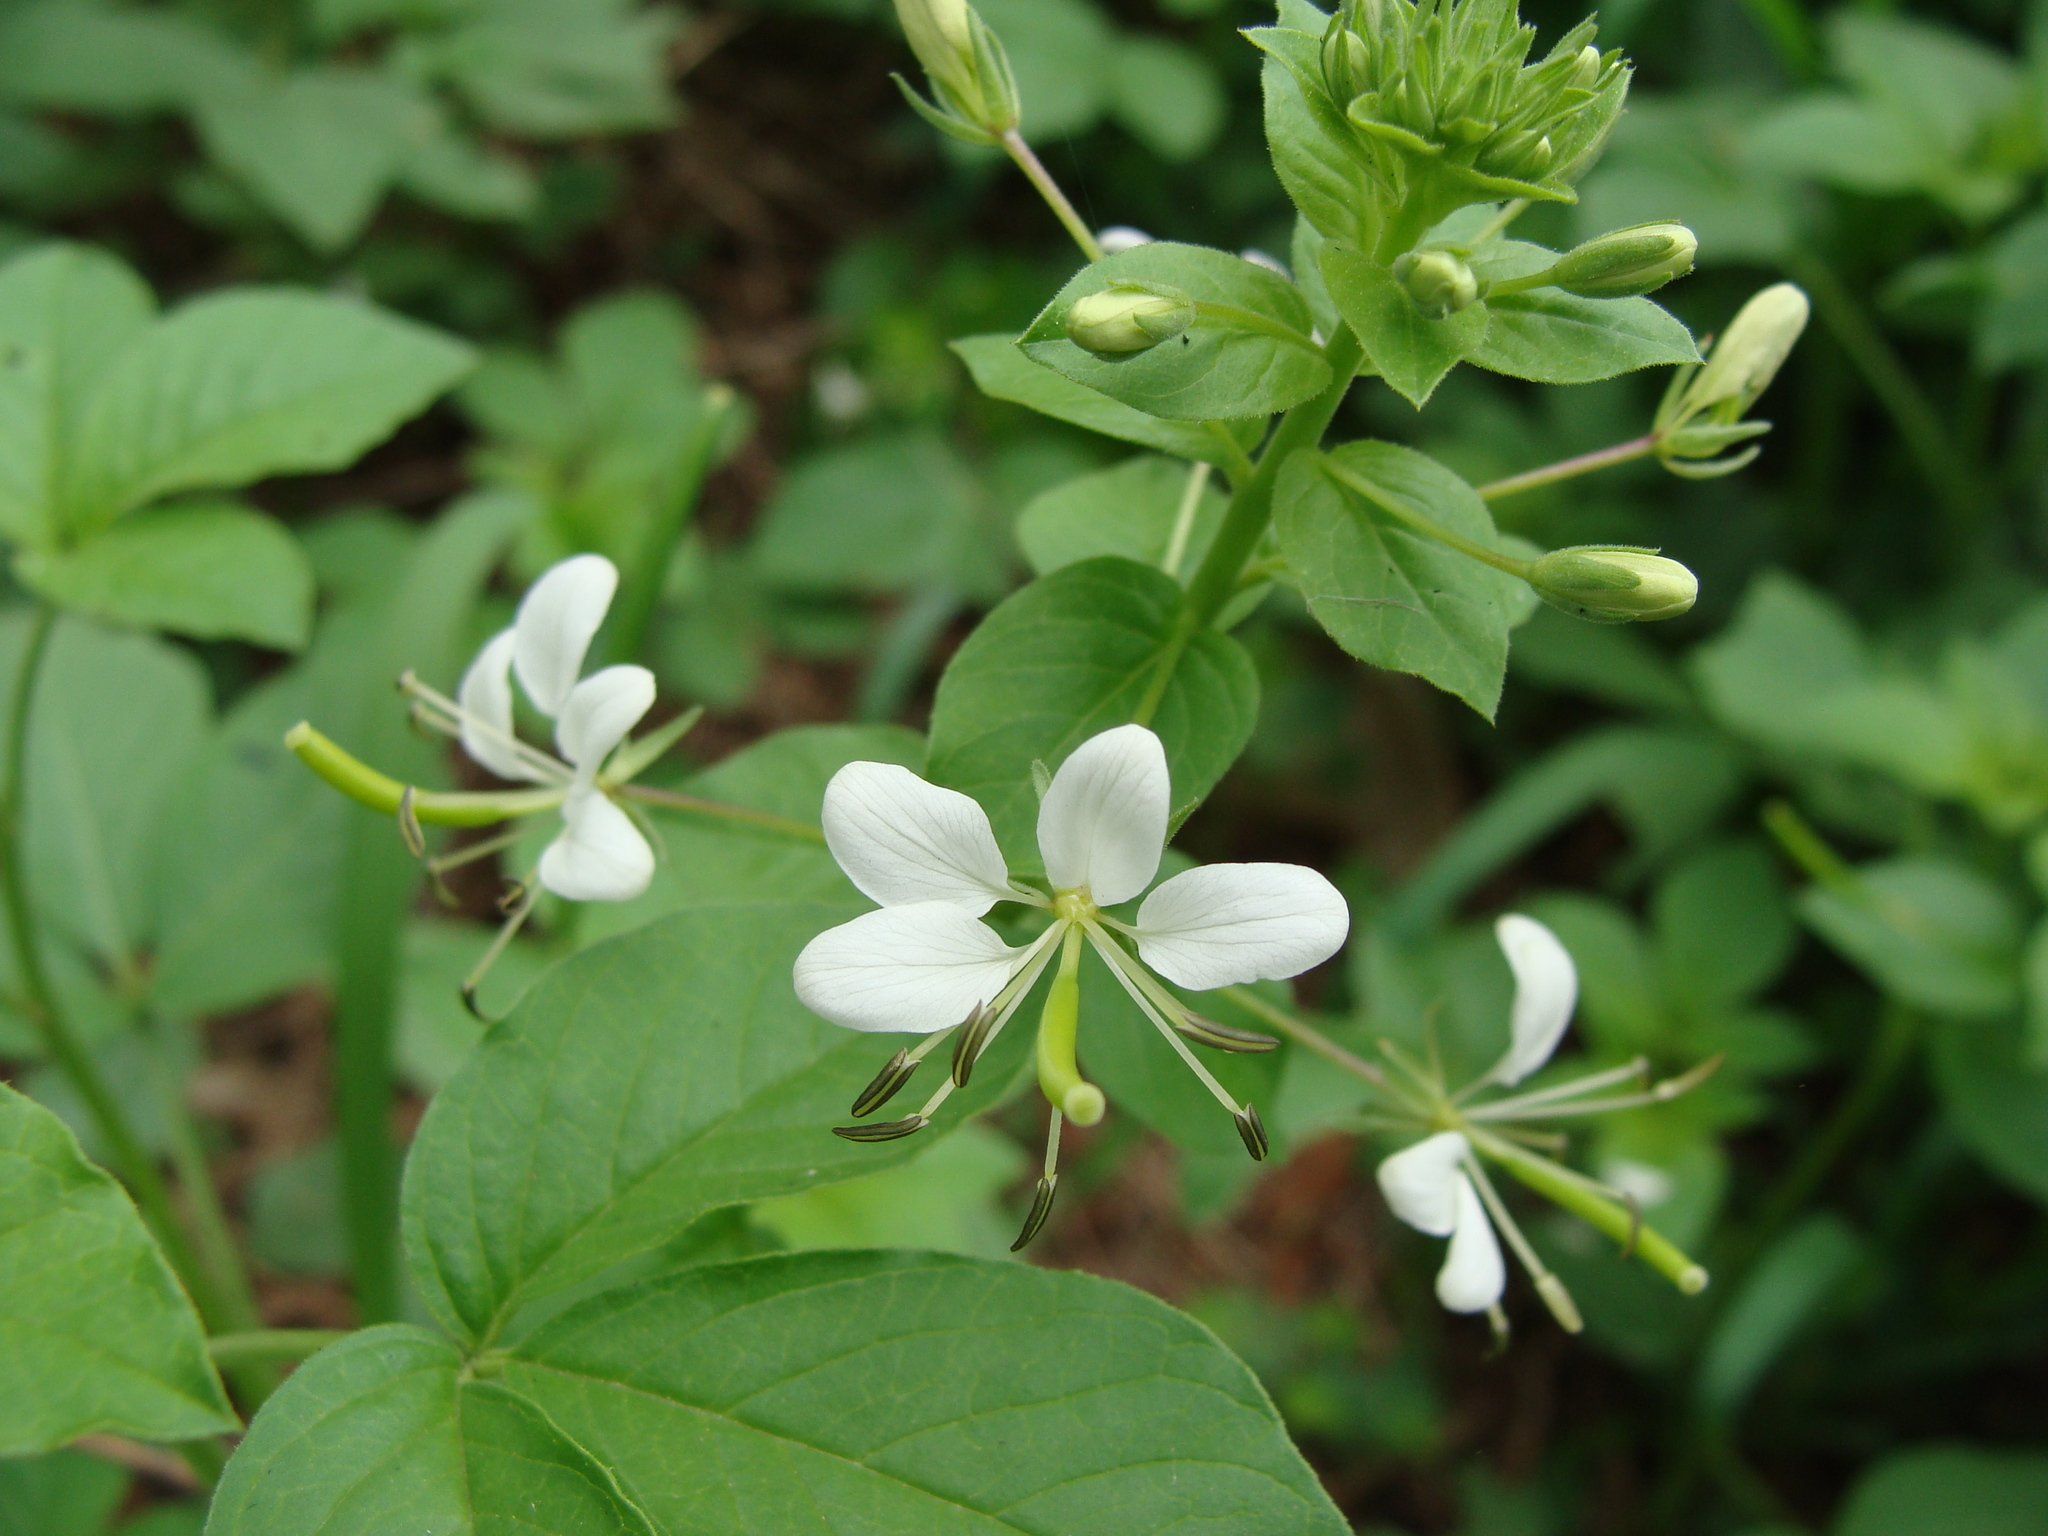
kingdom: Plantae
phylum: Tracheophyta
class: Magnoliopsida
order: Brassicales
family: Cleomaceae
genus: Cleoserrata
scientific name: Cleoserrata serrata
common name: Toothed spiderflower
